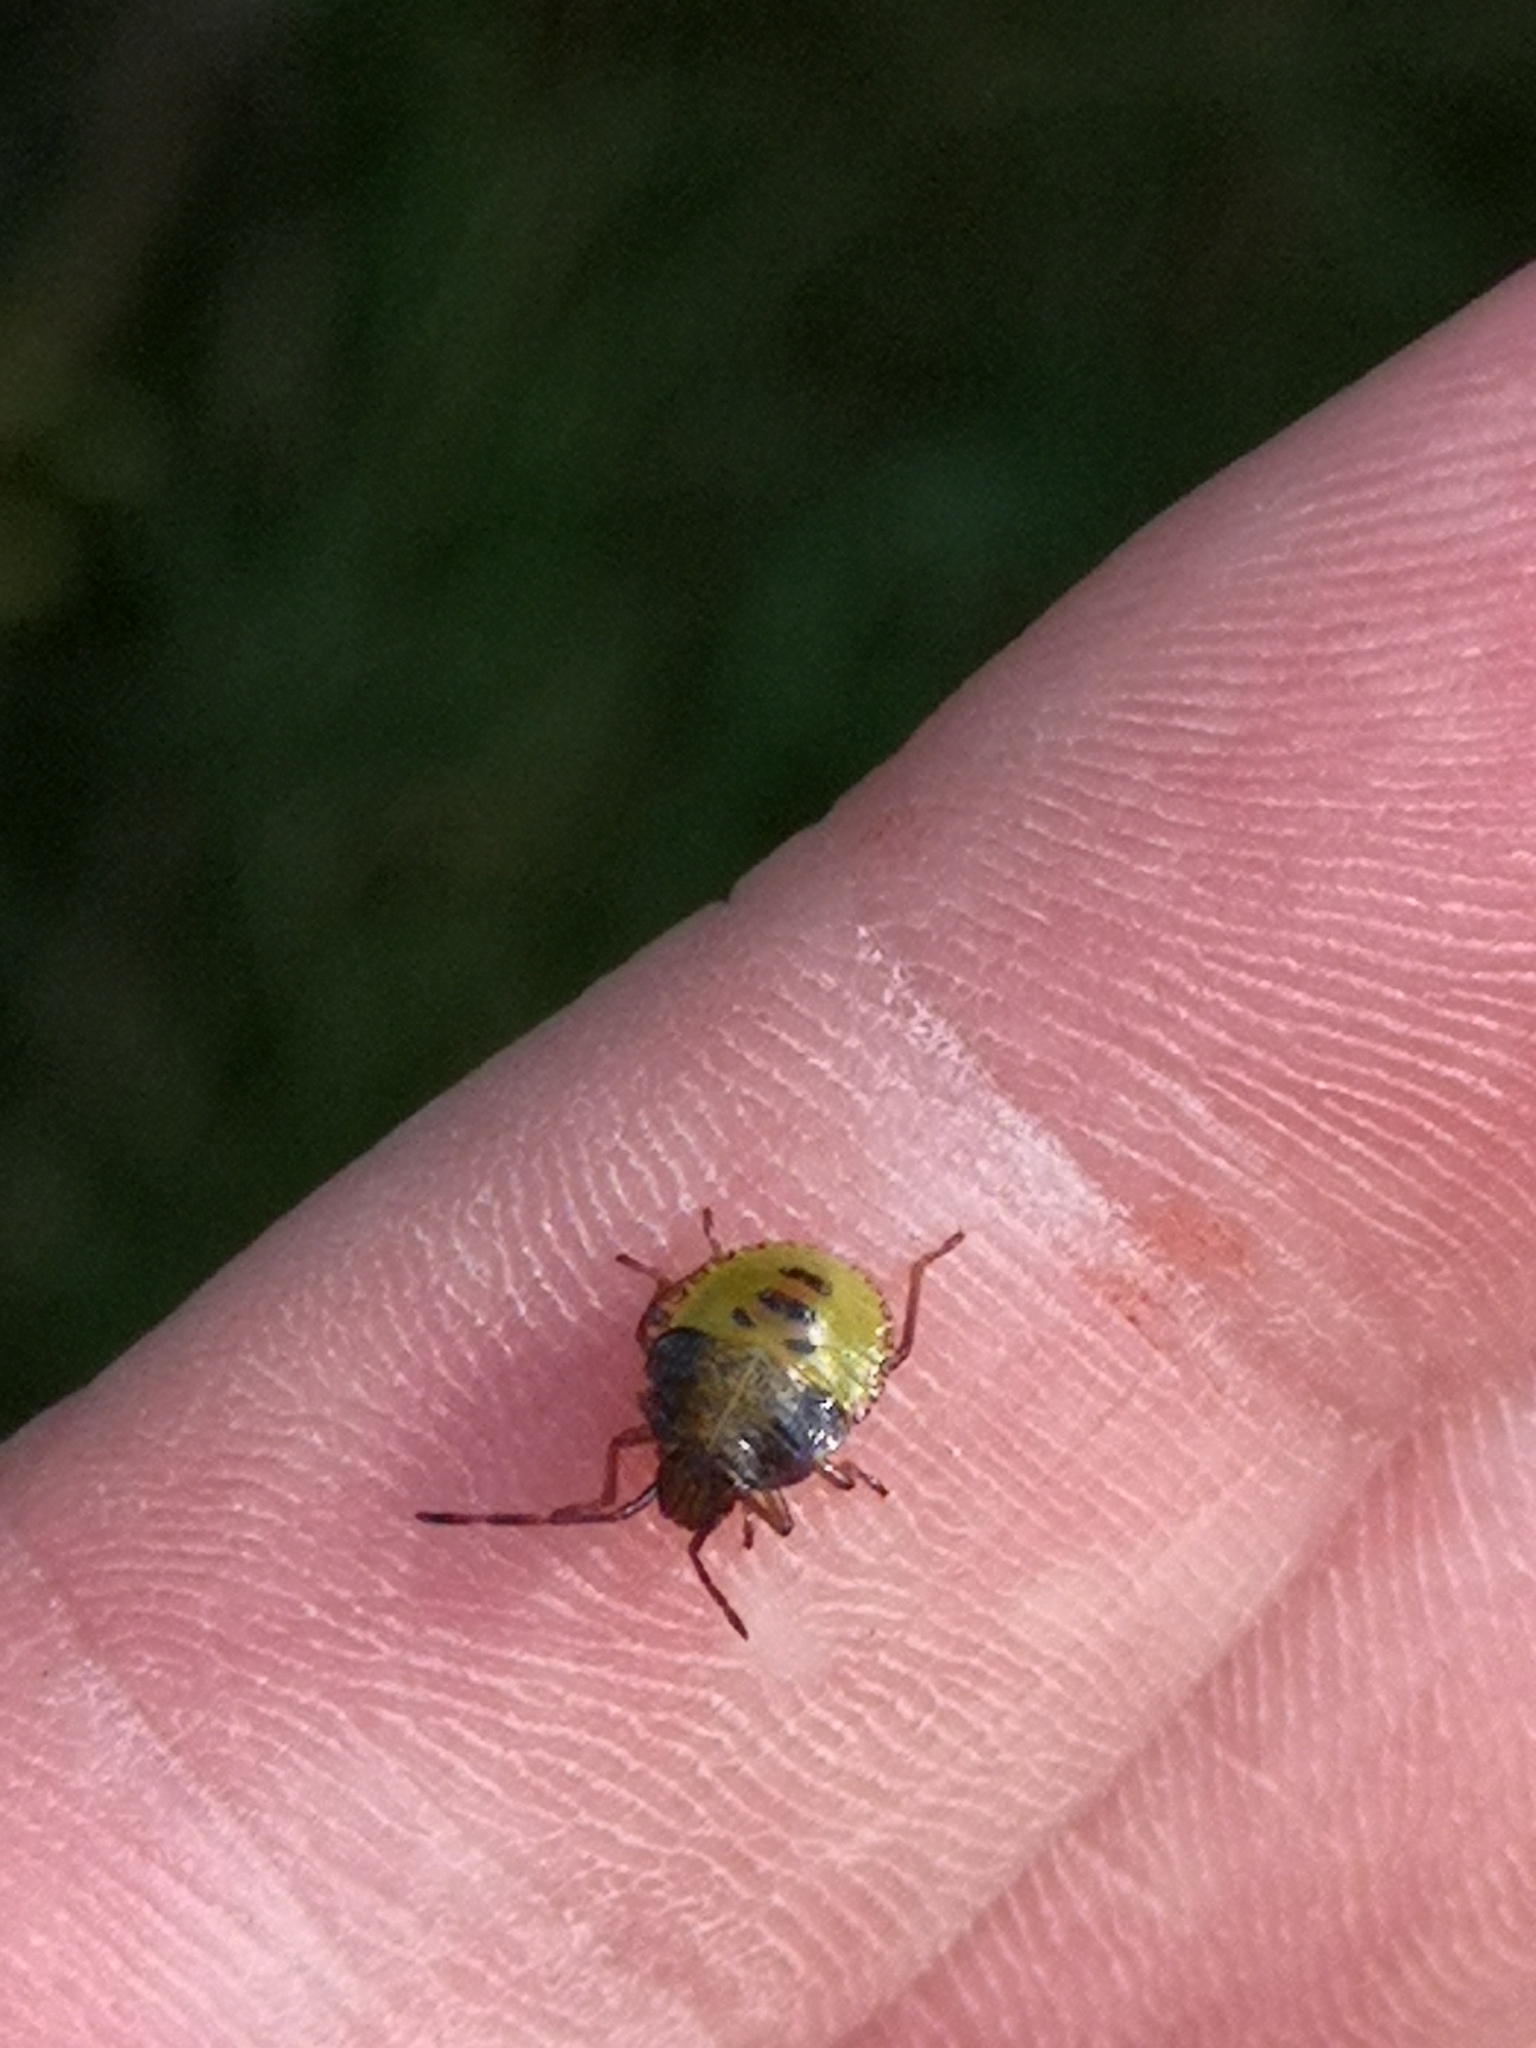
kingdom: Animalia
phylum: Arthropoda
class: Insecta
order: Hemiptera
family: Acanthosomatidae
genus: Acanthosoma
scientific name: Acanthosoma haemorrhoidale
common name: Hawthorn shieldbug
